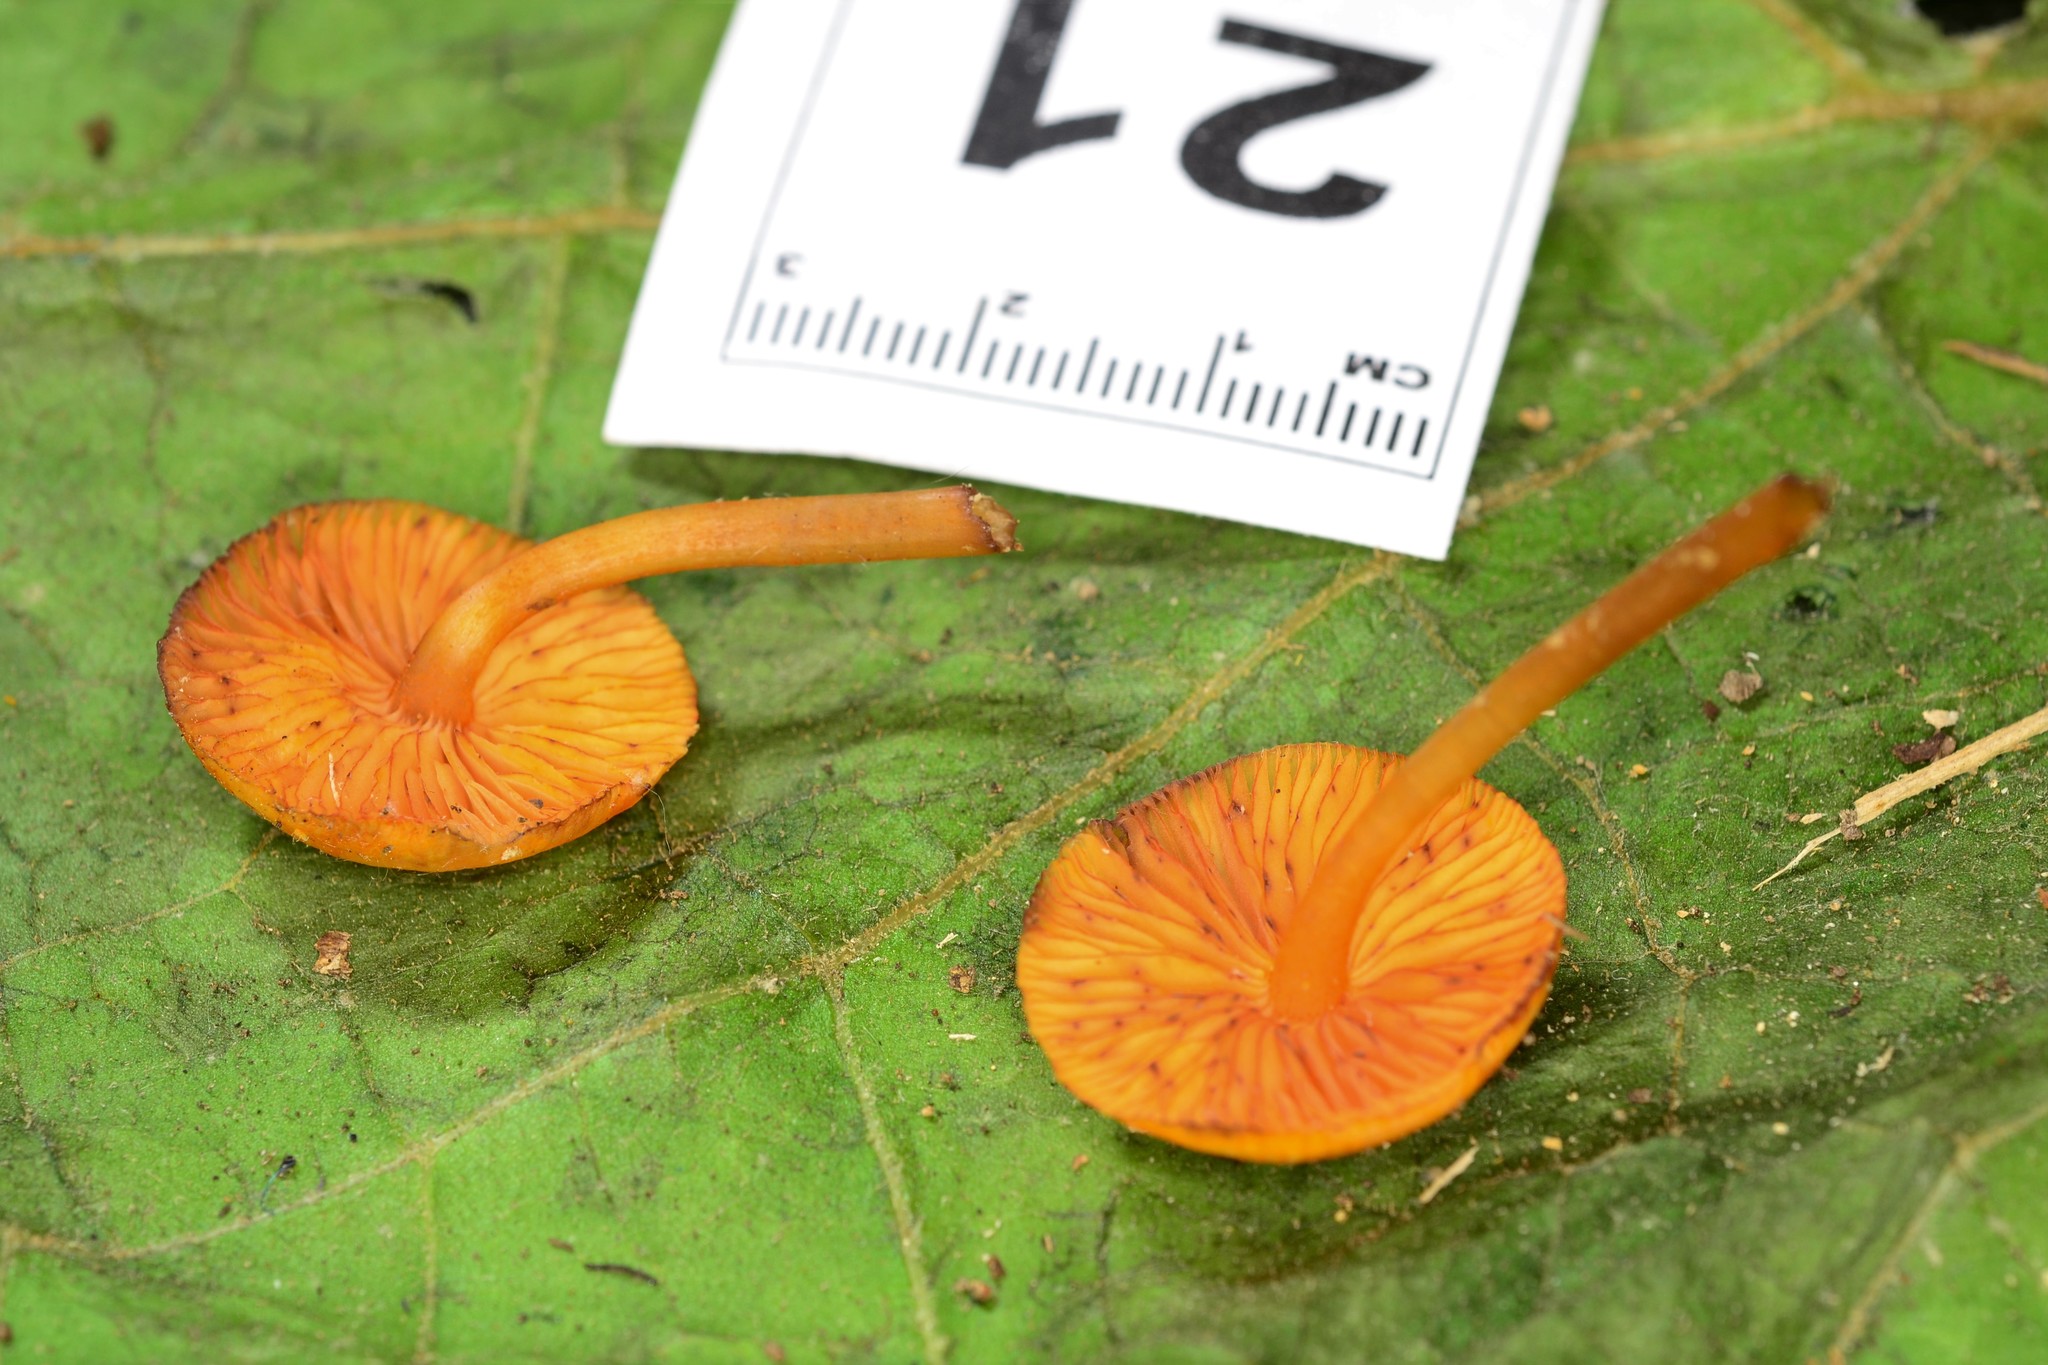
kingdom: Fungi
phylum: Basidiomycota
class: Agaricomycetes
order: Agaricales
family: Mycenaceae
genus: Mycena
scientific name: Mycena leaiana
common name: Orange mycena
